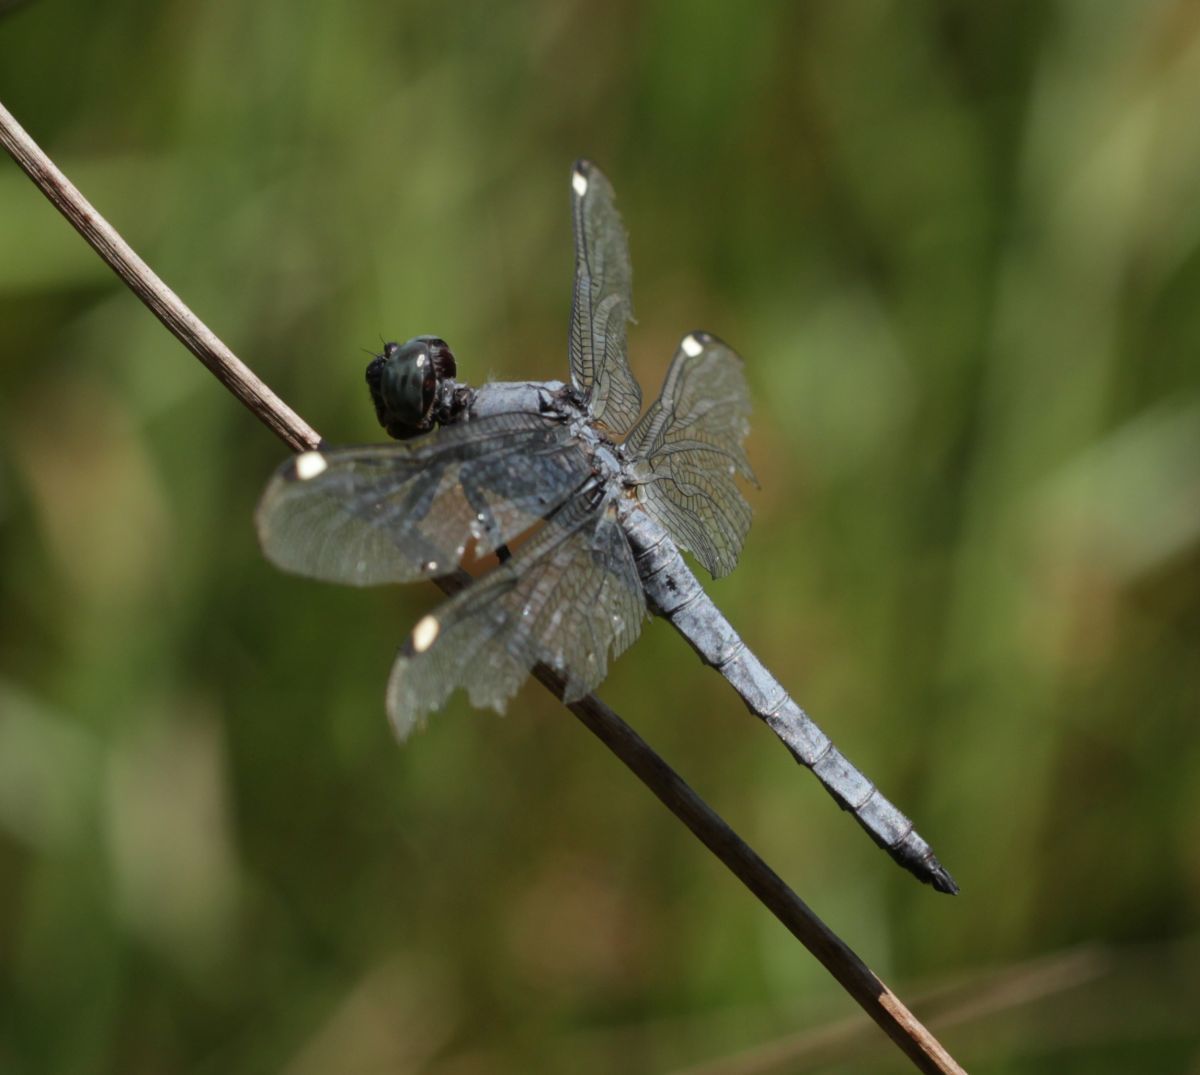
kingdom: Animalia
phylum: Arthropoda
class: Insecta
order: Odonata
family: Libellulidae
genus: Libellula
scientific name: Libellula cyanea
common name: Spangled skimmer
